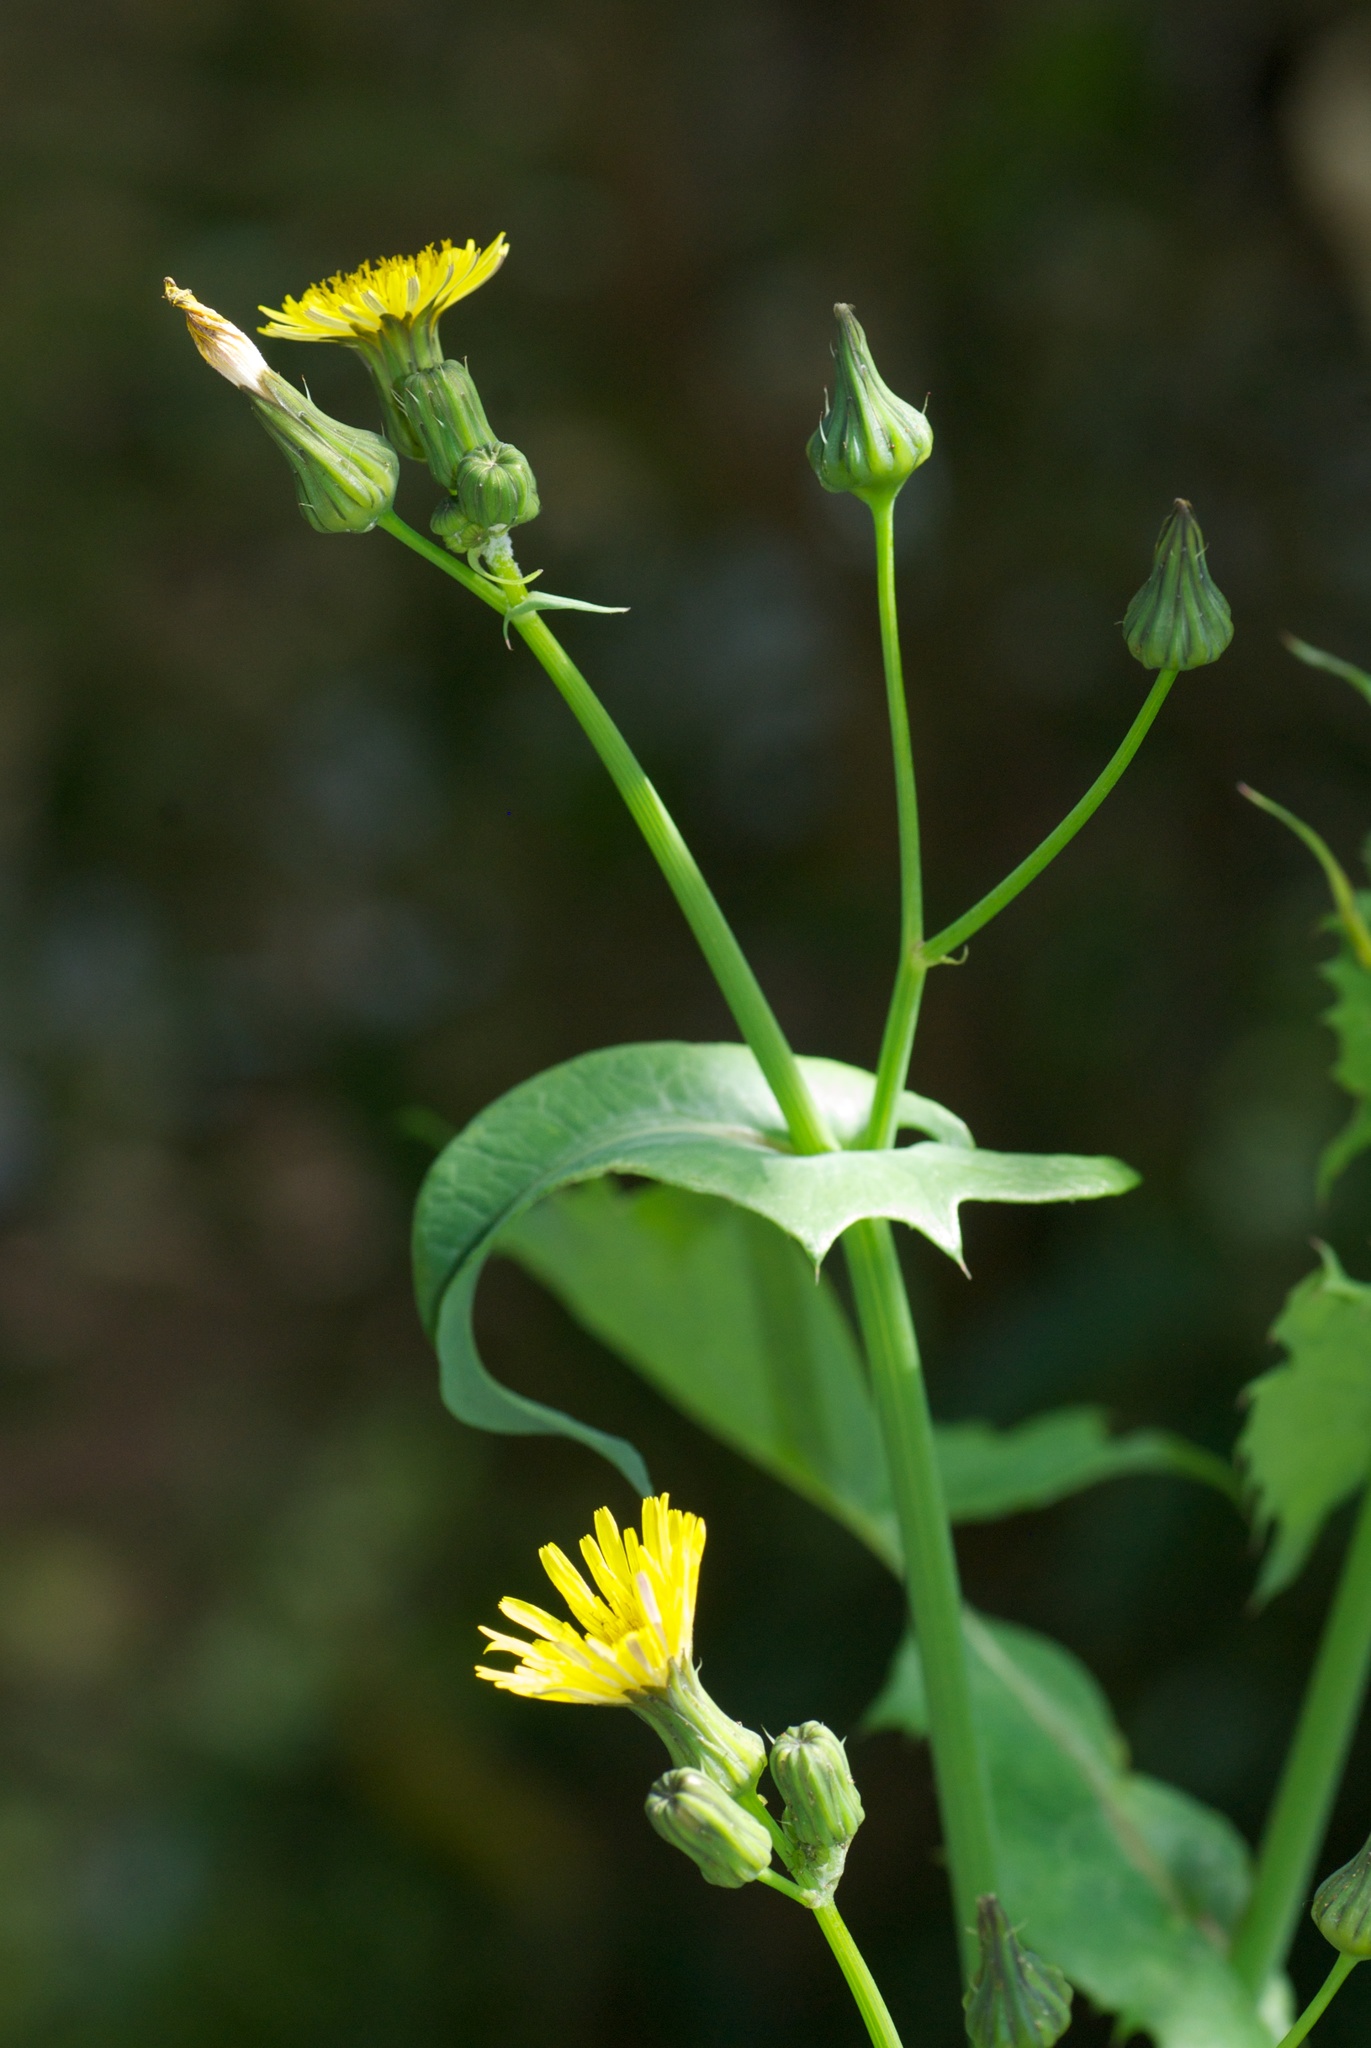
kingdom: Plantae
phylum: Tracheophyta
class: Magnoliopsida
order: Asterales
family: Asteraceae
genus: Sonchus
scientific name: Sonchus oleraceus
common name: Common sowthistle
